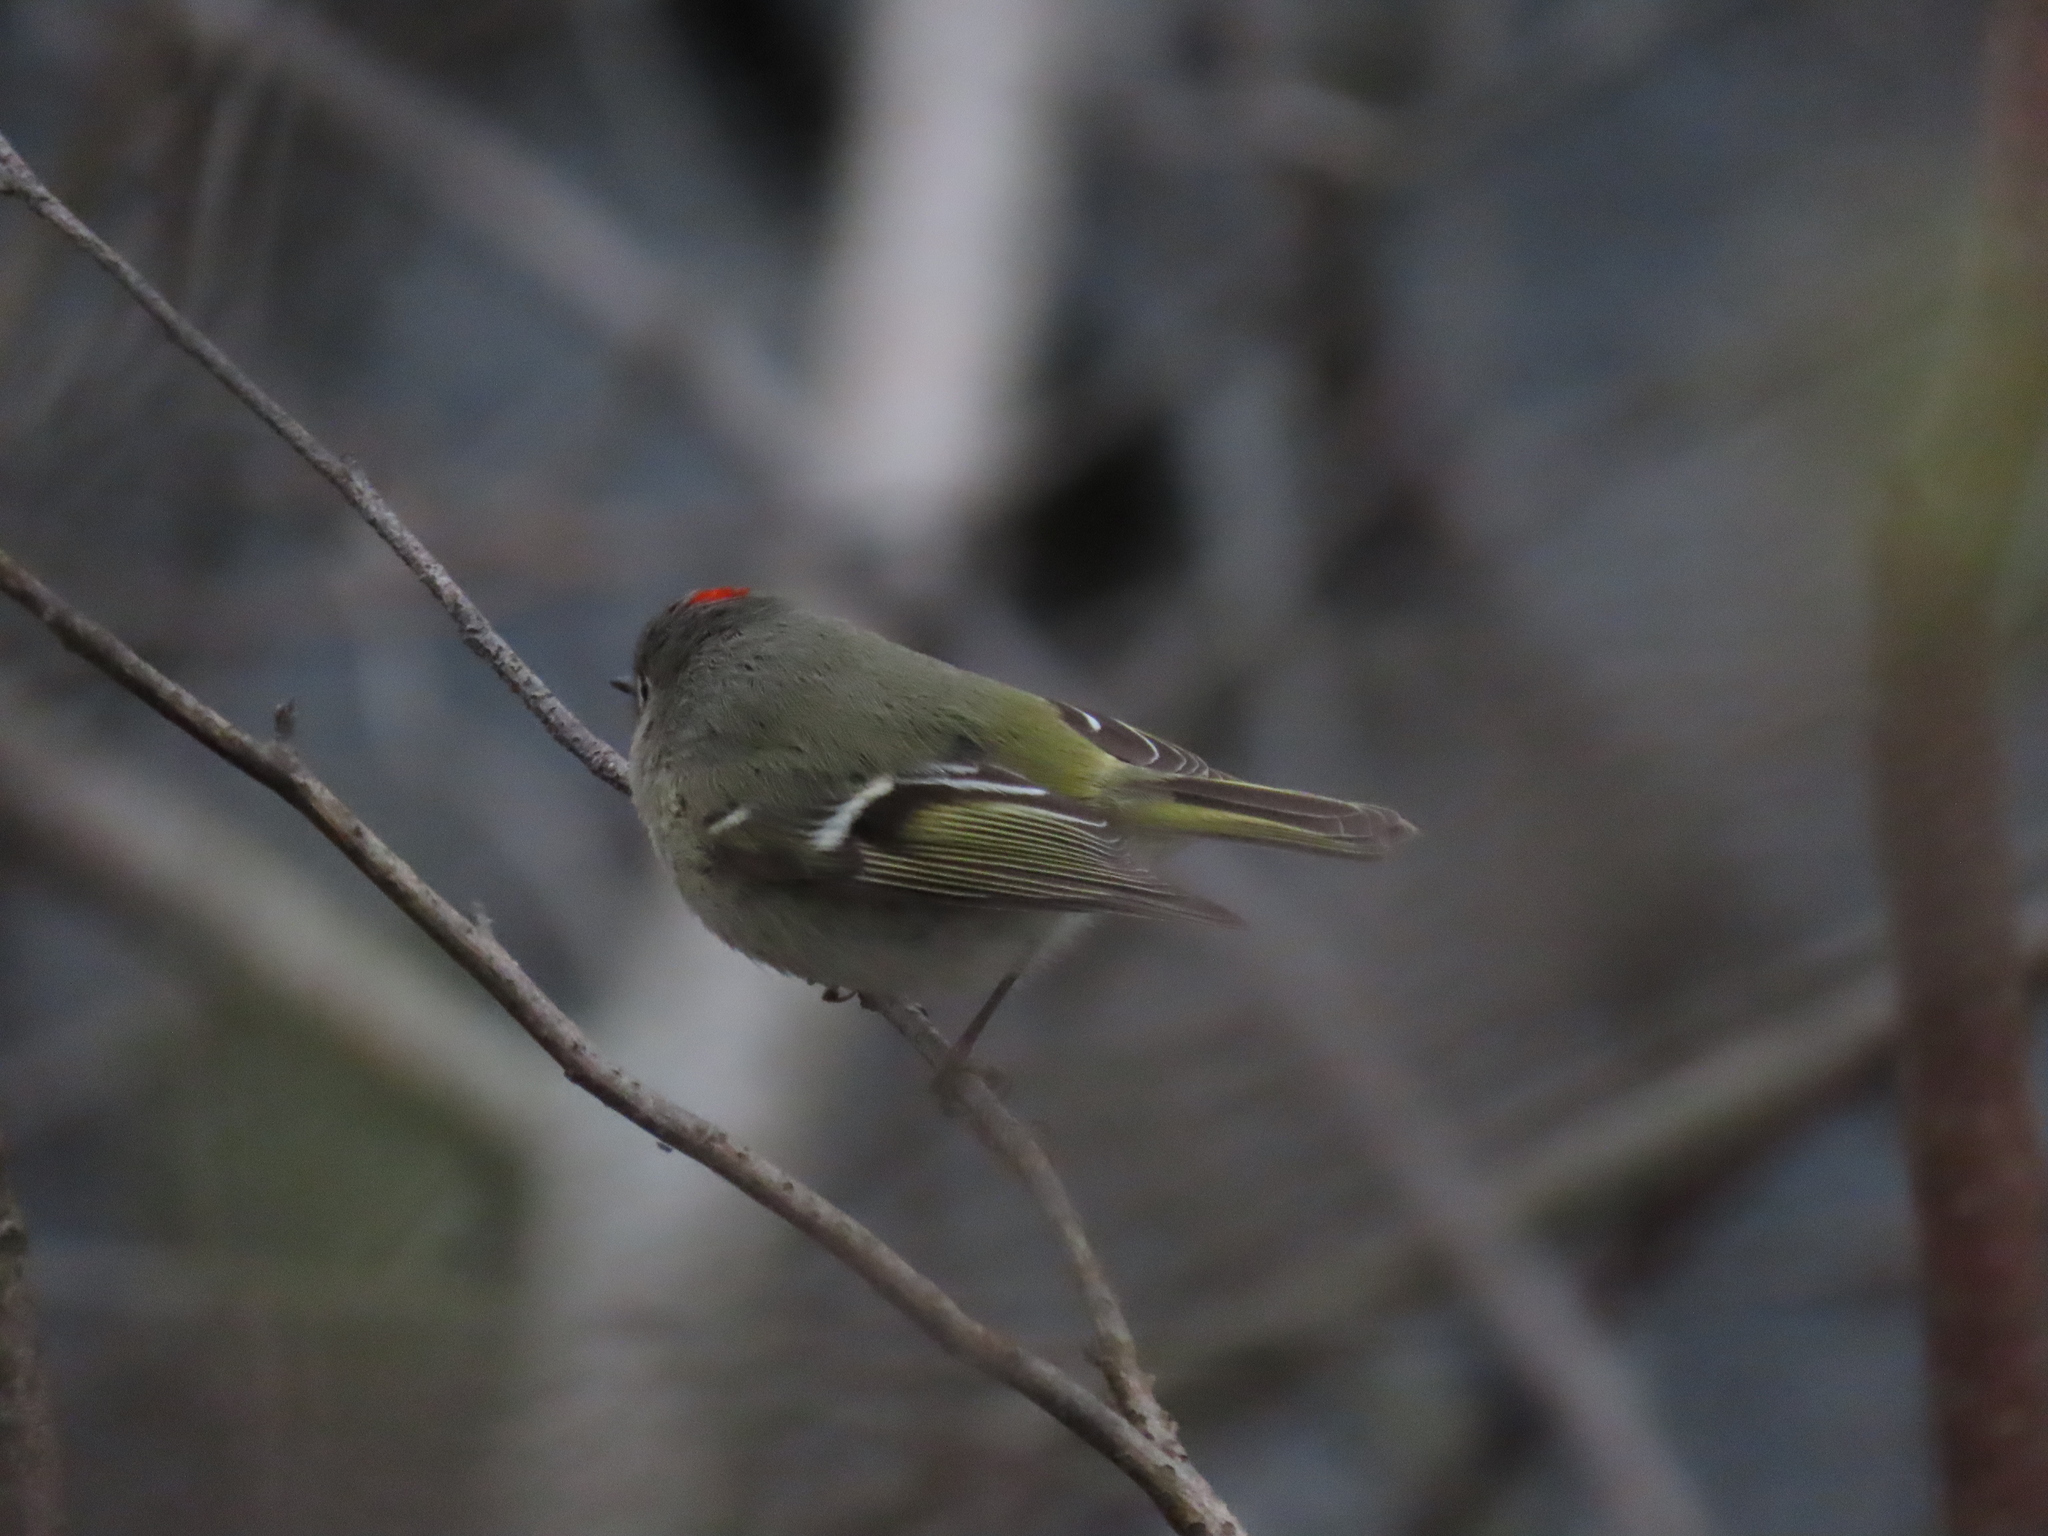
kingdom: Animalia
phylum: Chordata
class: Aves
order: Passeriformes
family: Regulidae
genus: Regulus
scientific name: Regulus calendula
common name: Ruby-crowned kinglet
